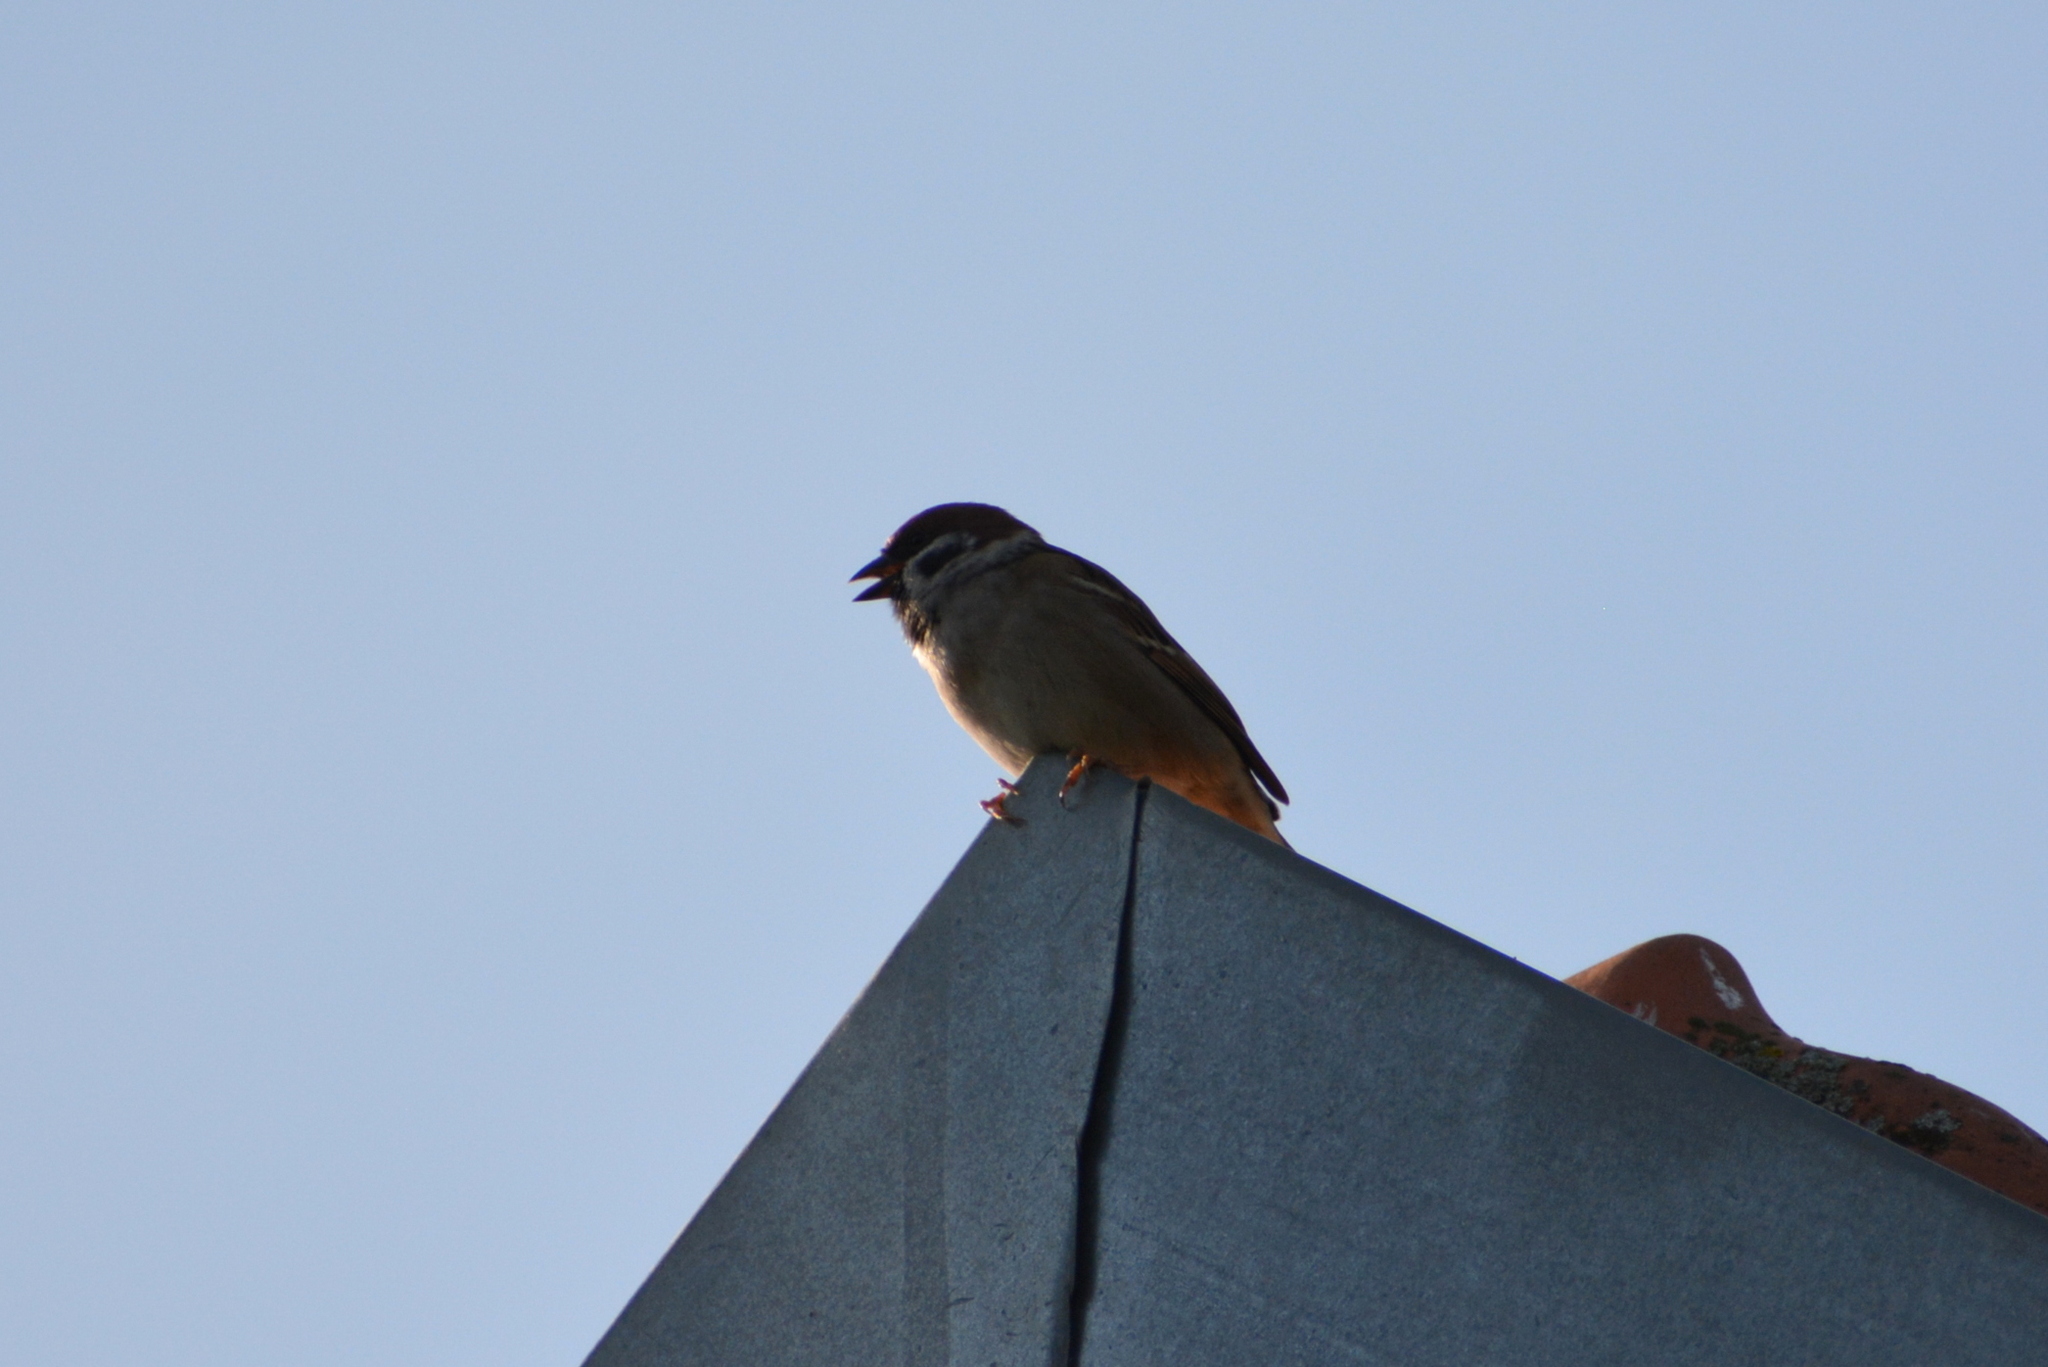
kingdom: Animalia
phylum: Chordata
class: Aves
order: Passeriformes
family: Passeridae
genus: Passer
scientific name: Passer montanus
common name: Eurasian tree sparrow
